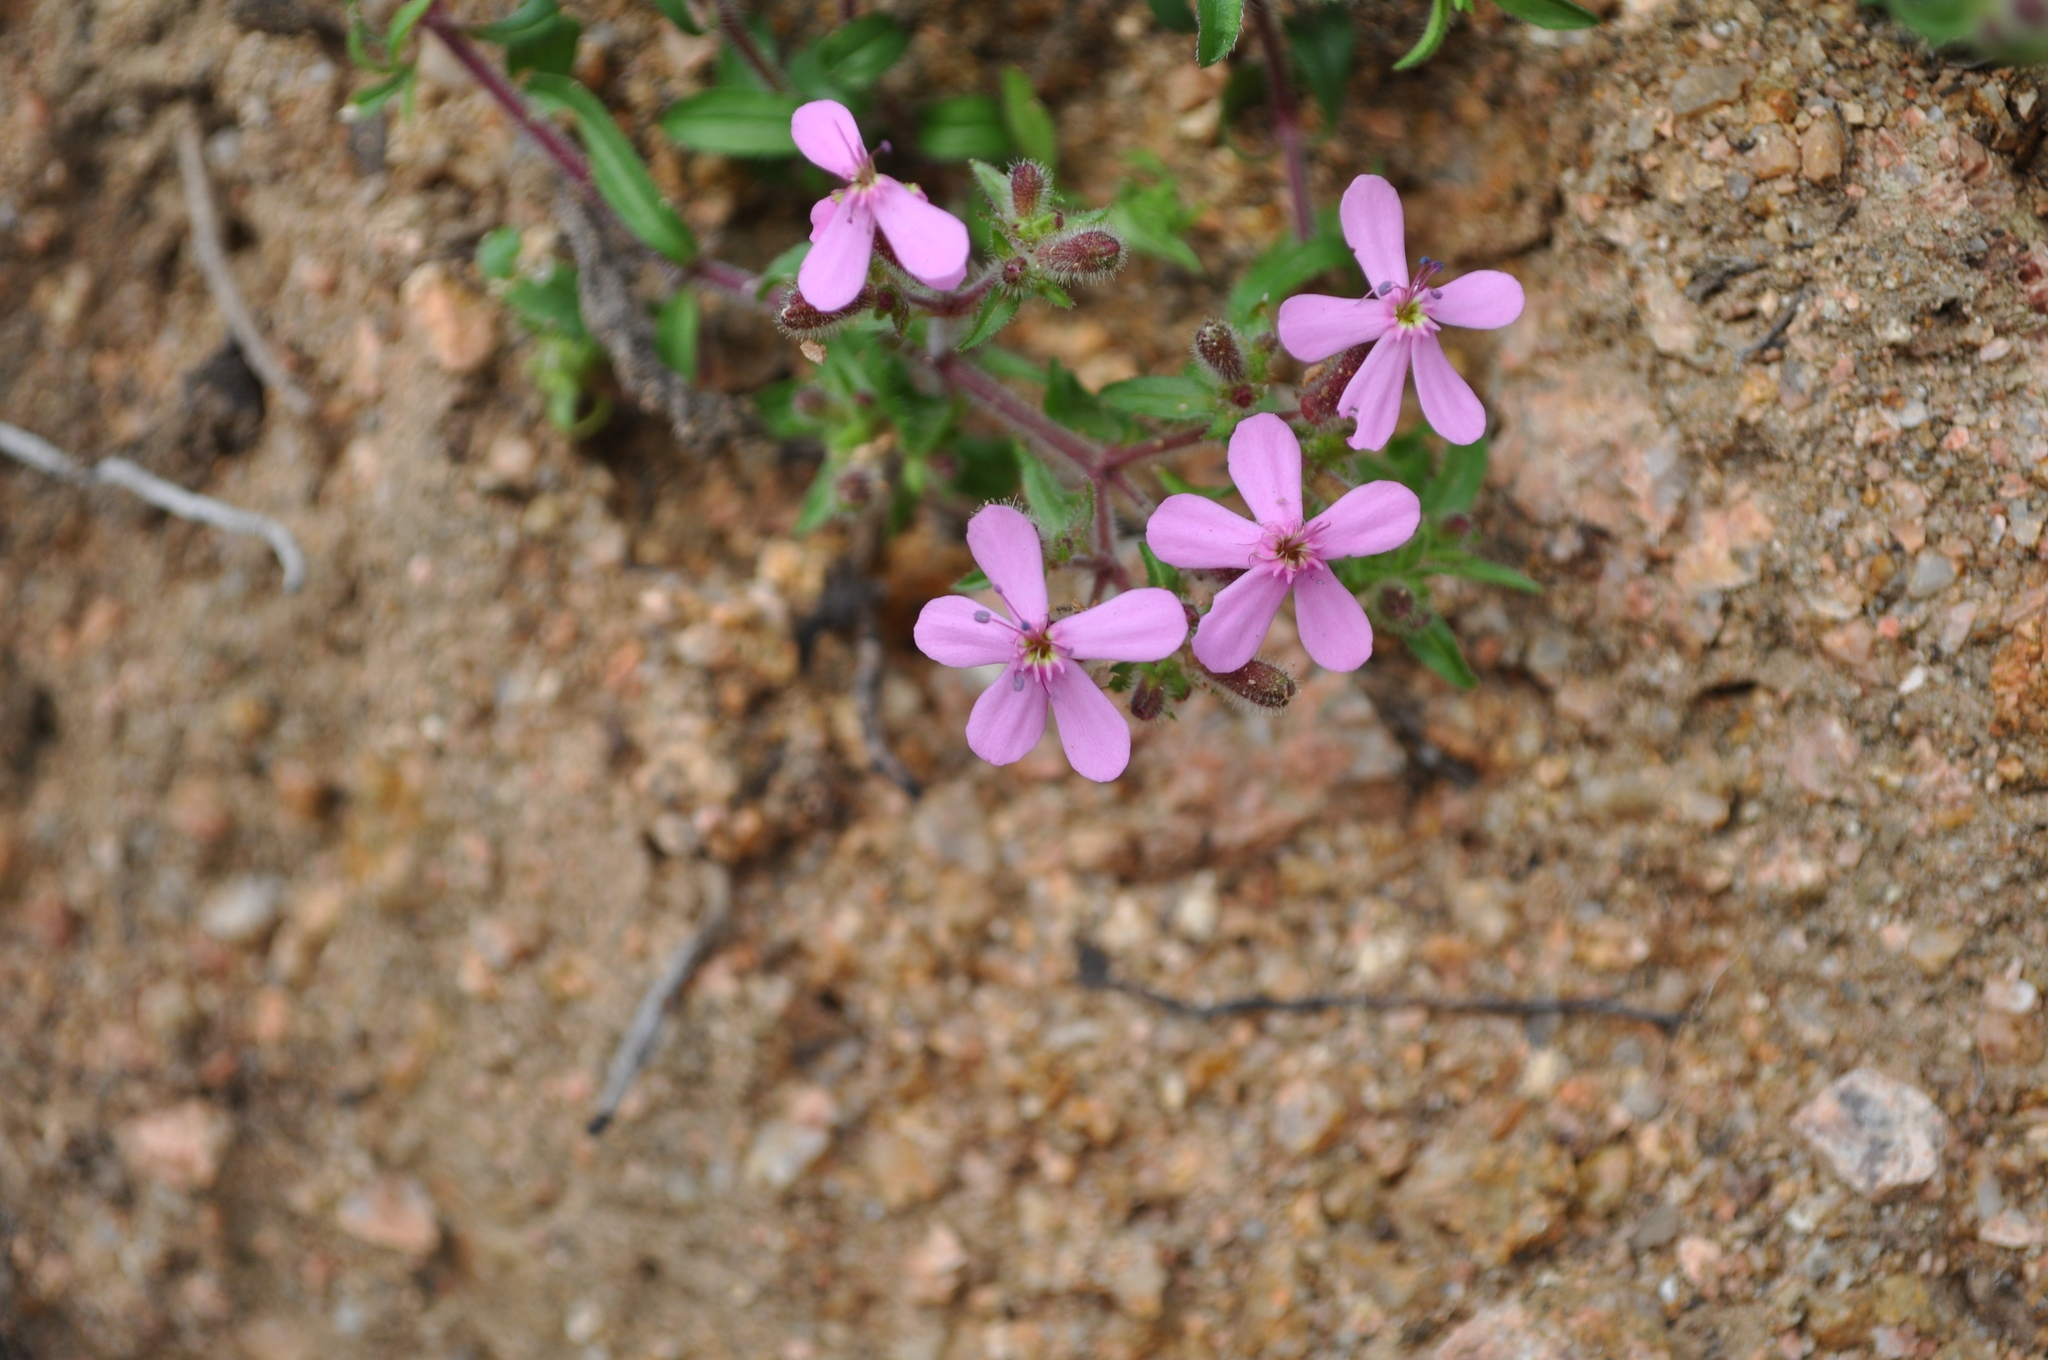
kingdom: Plantae
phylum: Tracheophyta
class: Magnoliopsida
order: Caryophyllales
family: Caryophyllaceae
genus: Saponaria
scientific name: Saponaria ocymoides
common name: Rock soapwort
